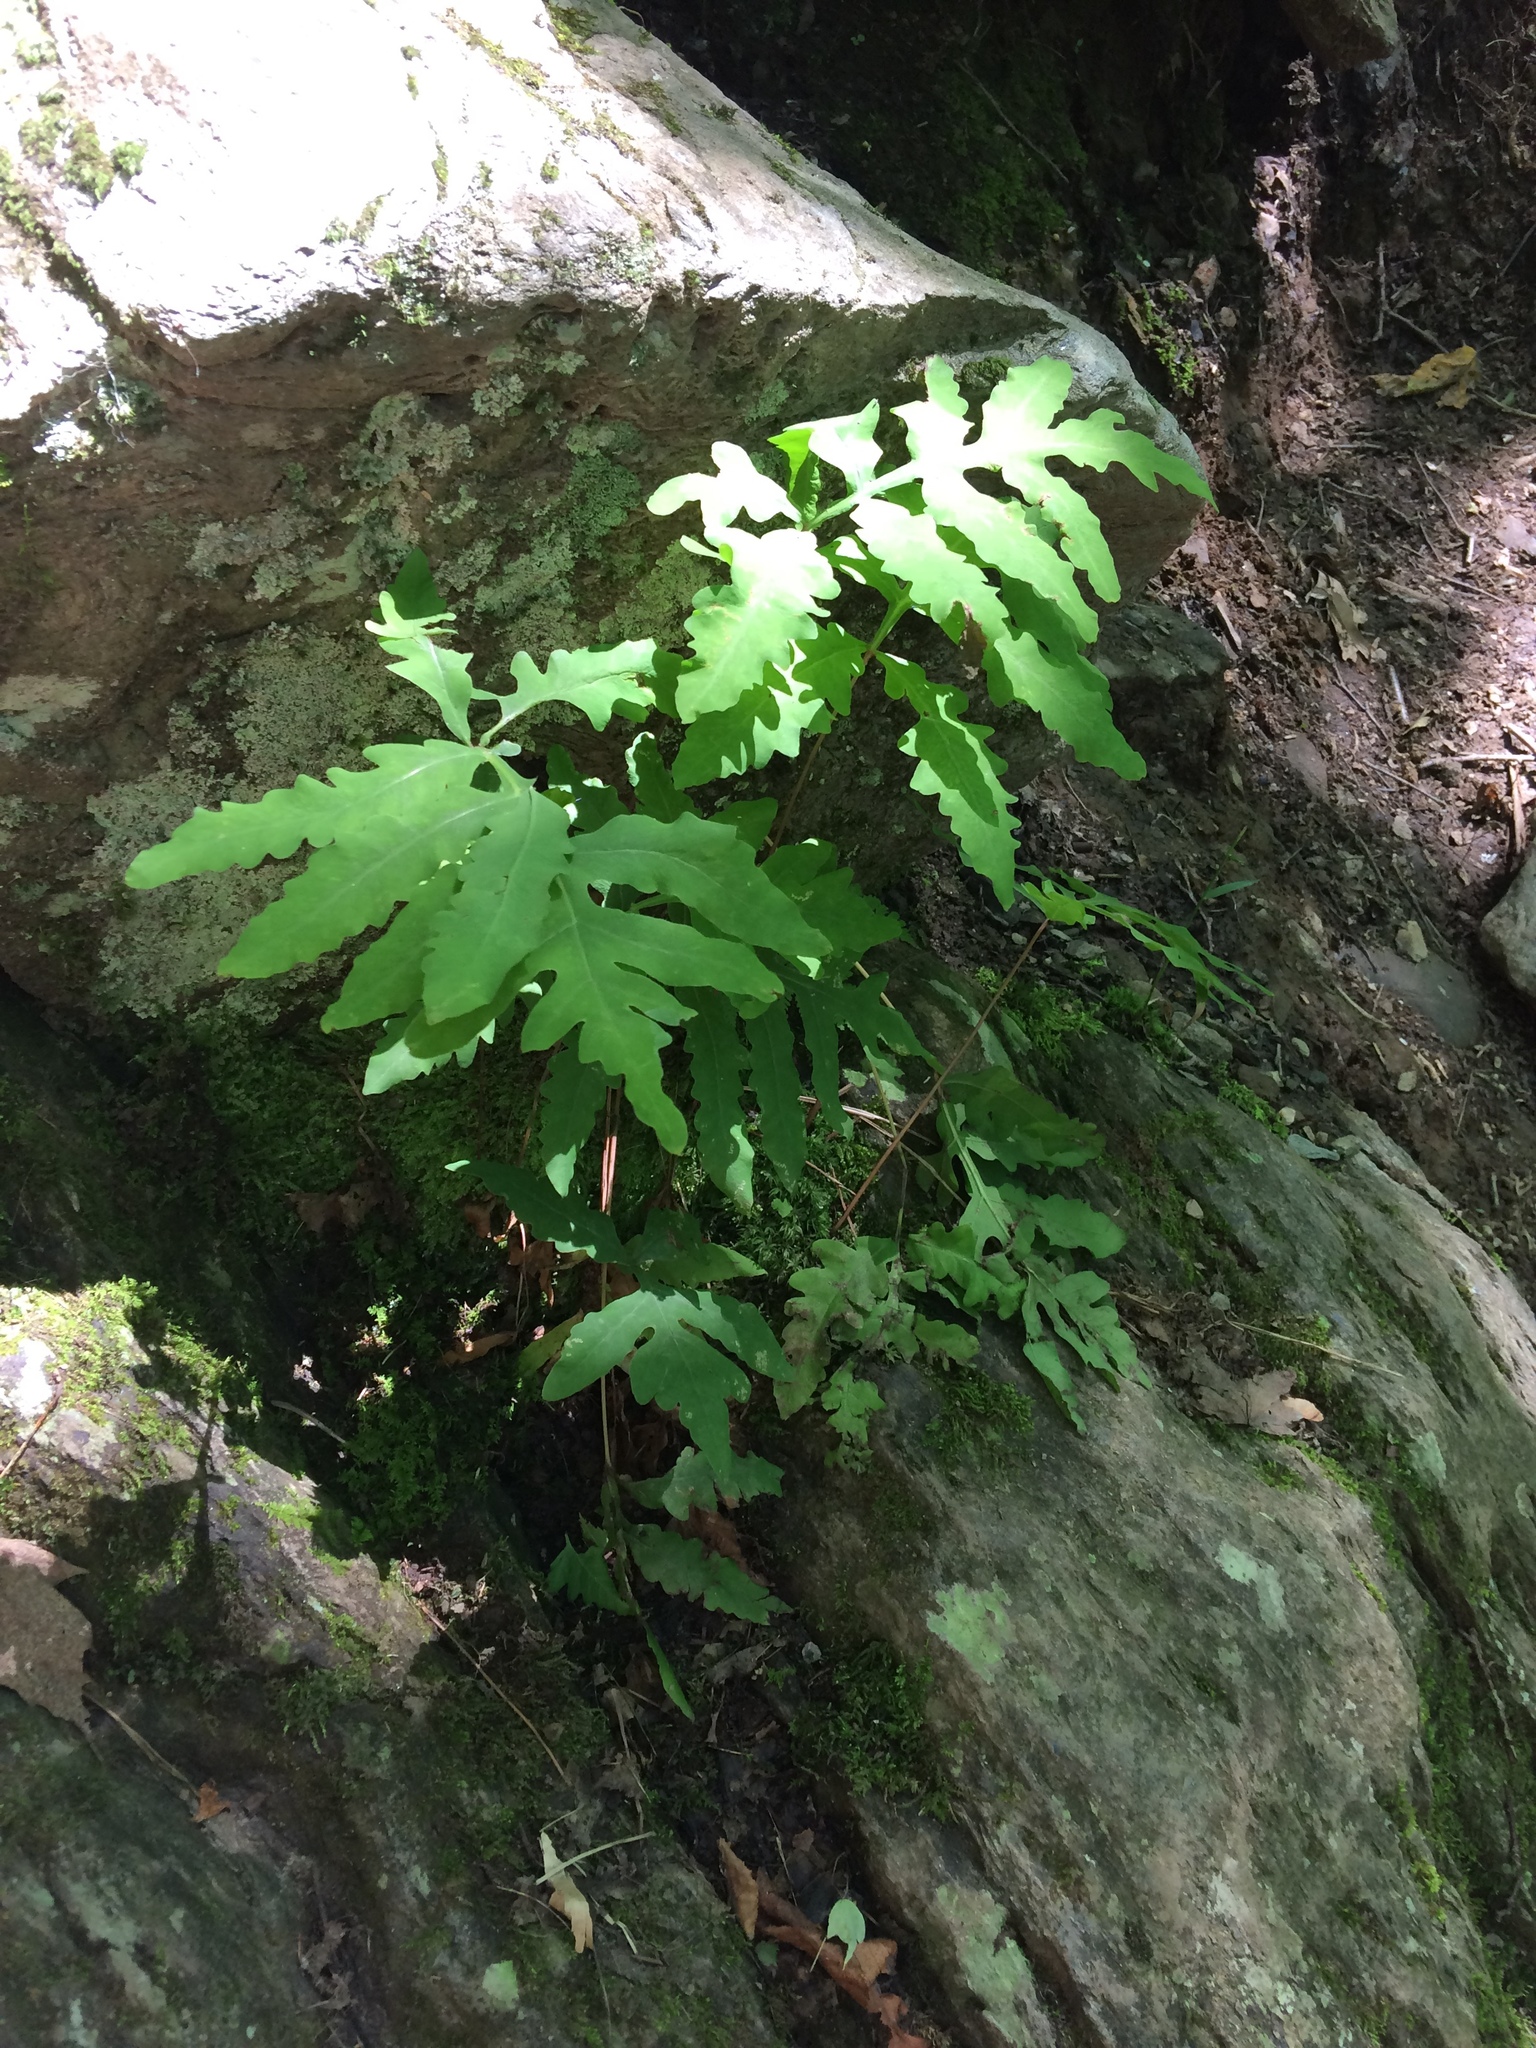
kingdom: Plantae
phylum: Tracheophyta
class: Polypodiopsida
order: Polypodiales
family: Onocleaceae
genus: Onoclea
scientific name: Onoclea sensibilis
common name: Sensitive fern
